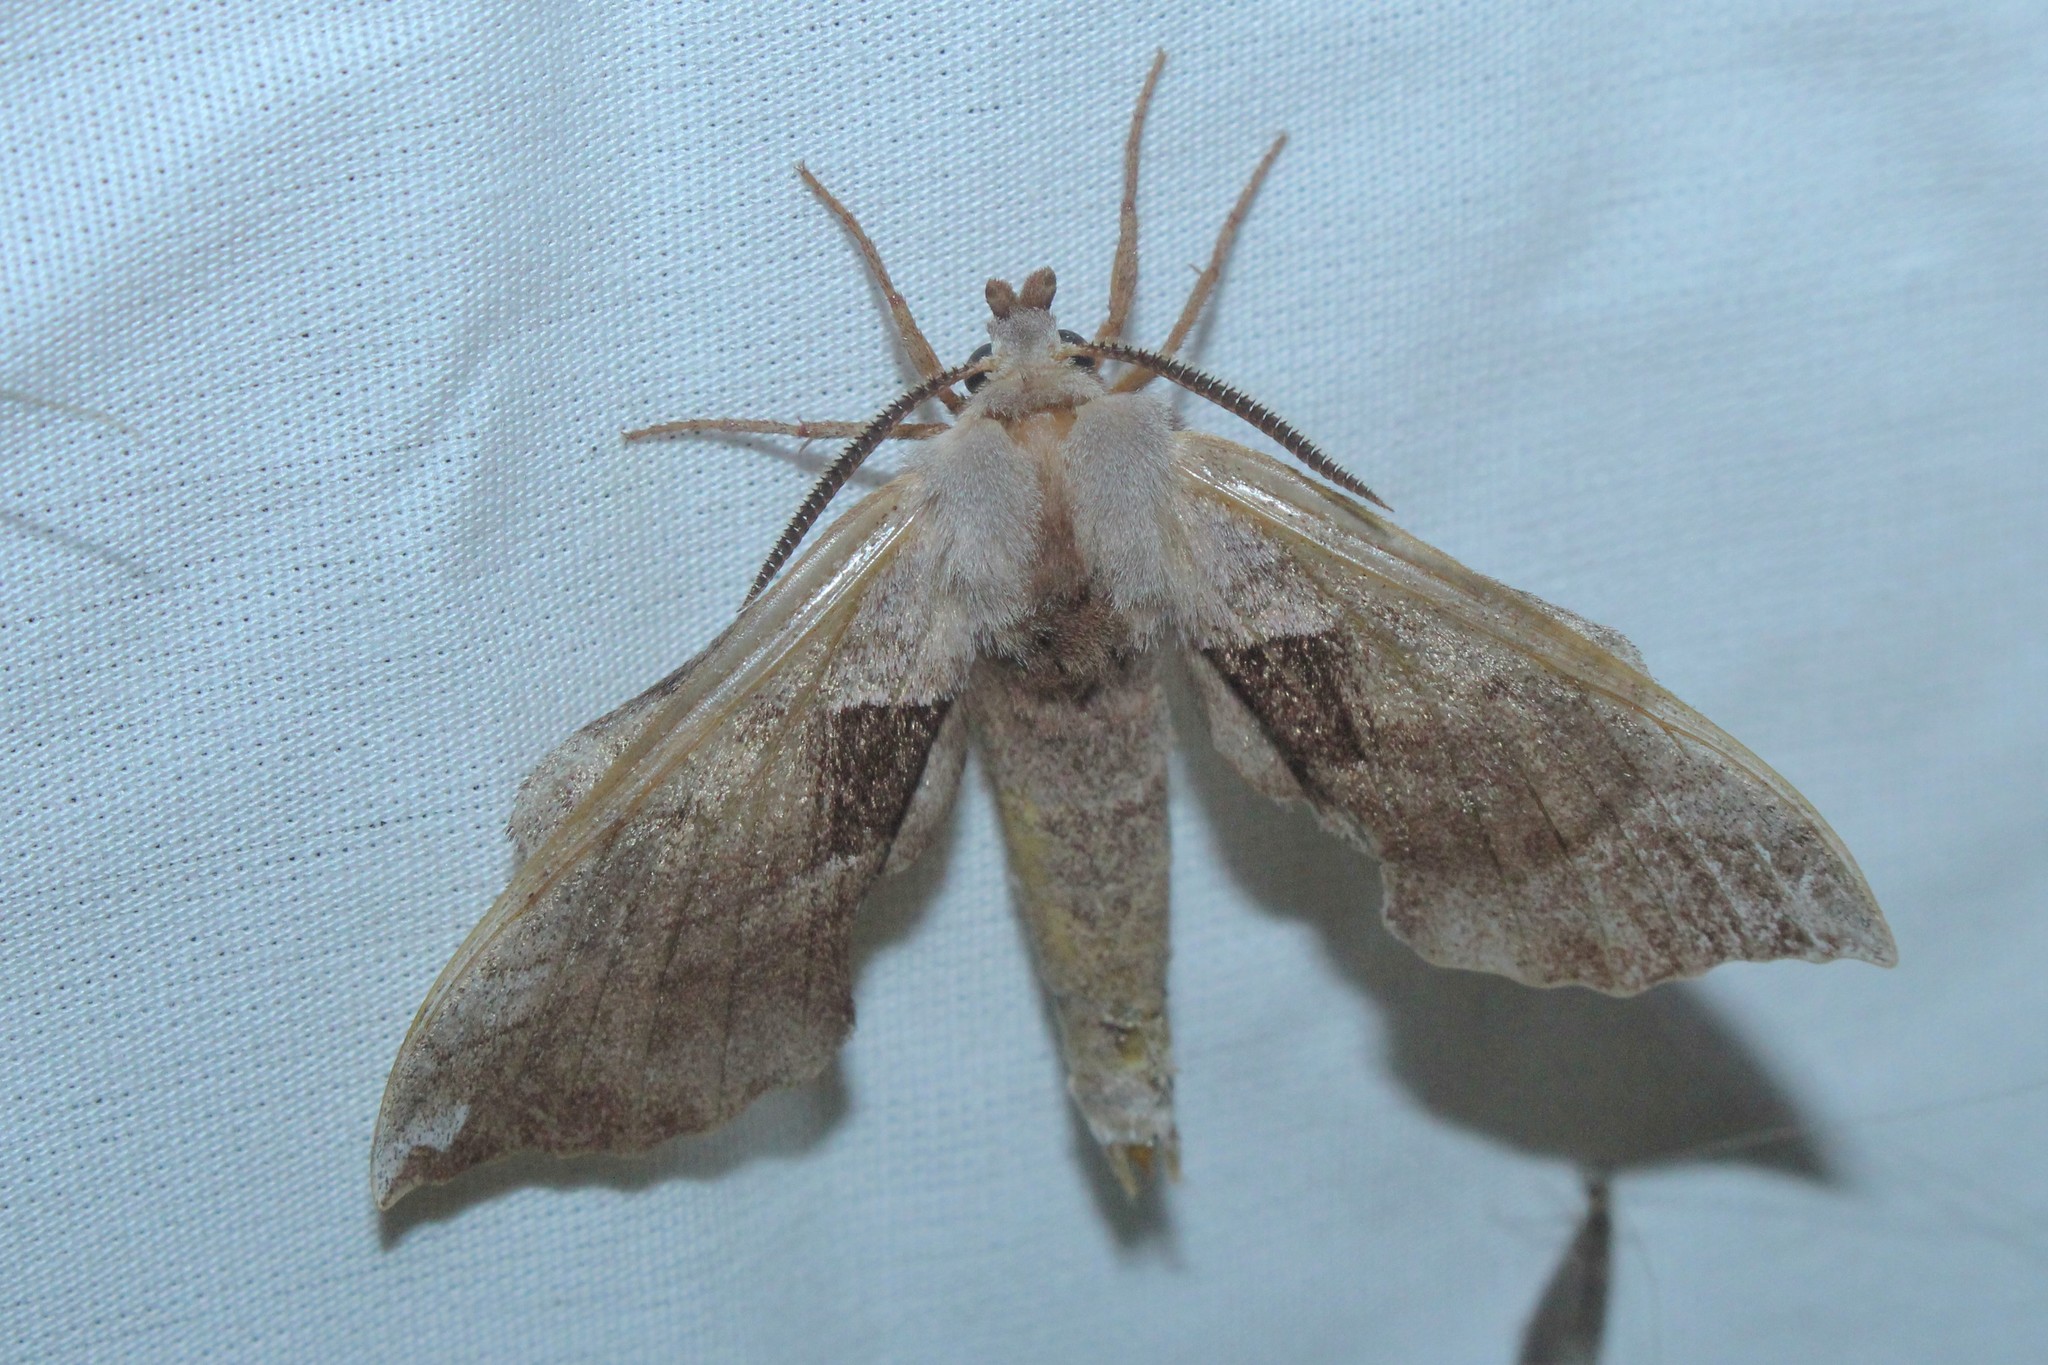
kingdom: Animalia
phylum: Arthropoda
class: Insecta
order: Lepidoptera
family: Sphingidae
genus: Amorpha
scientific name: Amorpha juglandis
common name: Walnut sphinx
